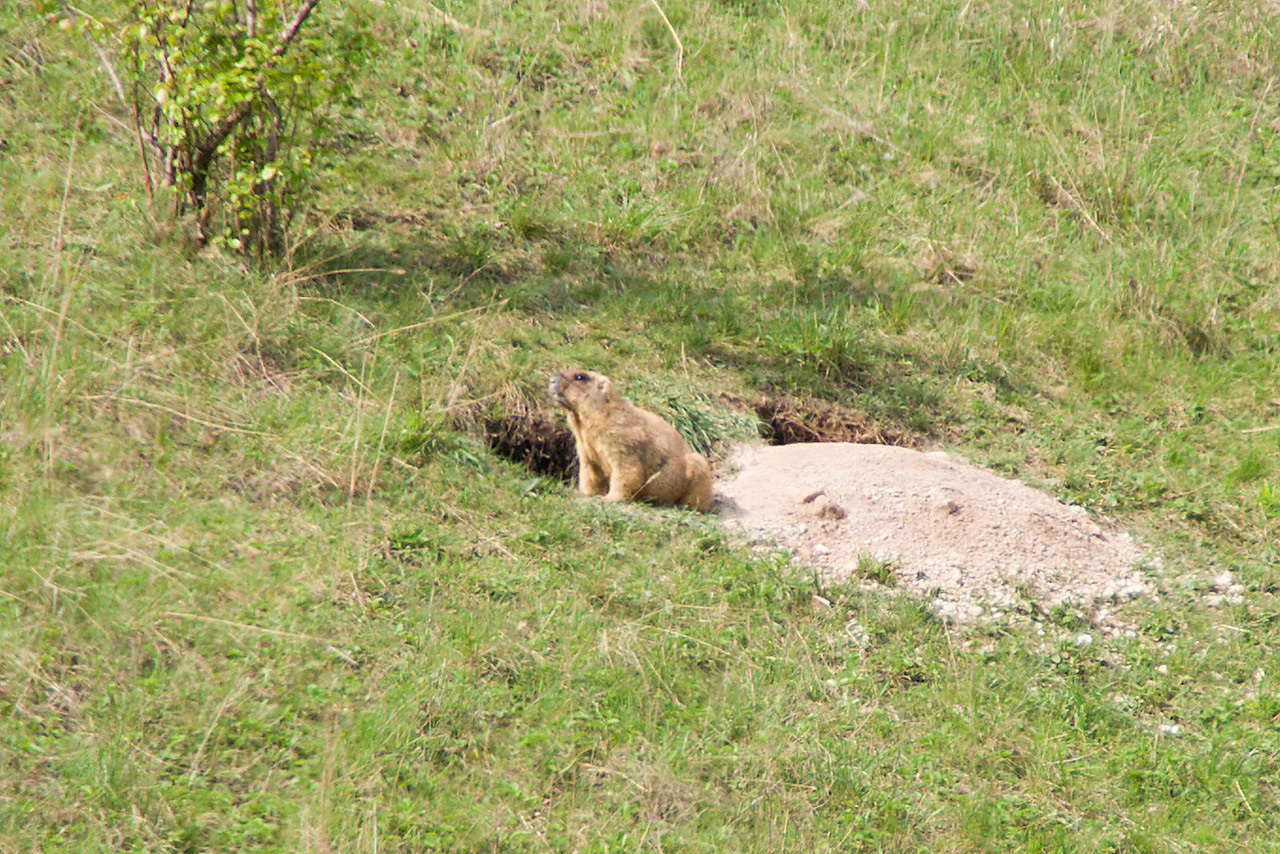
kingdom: Animalia
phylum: Chordata
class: Mammalia
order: Rodentia
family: Sciuridae
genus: Marmota
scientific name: Marmota bobak
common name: Bobak marmot
